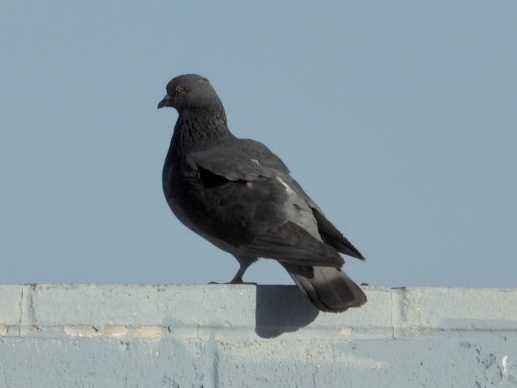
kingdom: Animalia
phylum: Chordata
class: Aves
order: Columbiformes
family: Columbidae
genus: Columba
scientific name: Columba livia
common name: Rock pigeon
